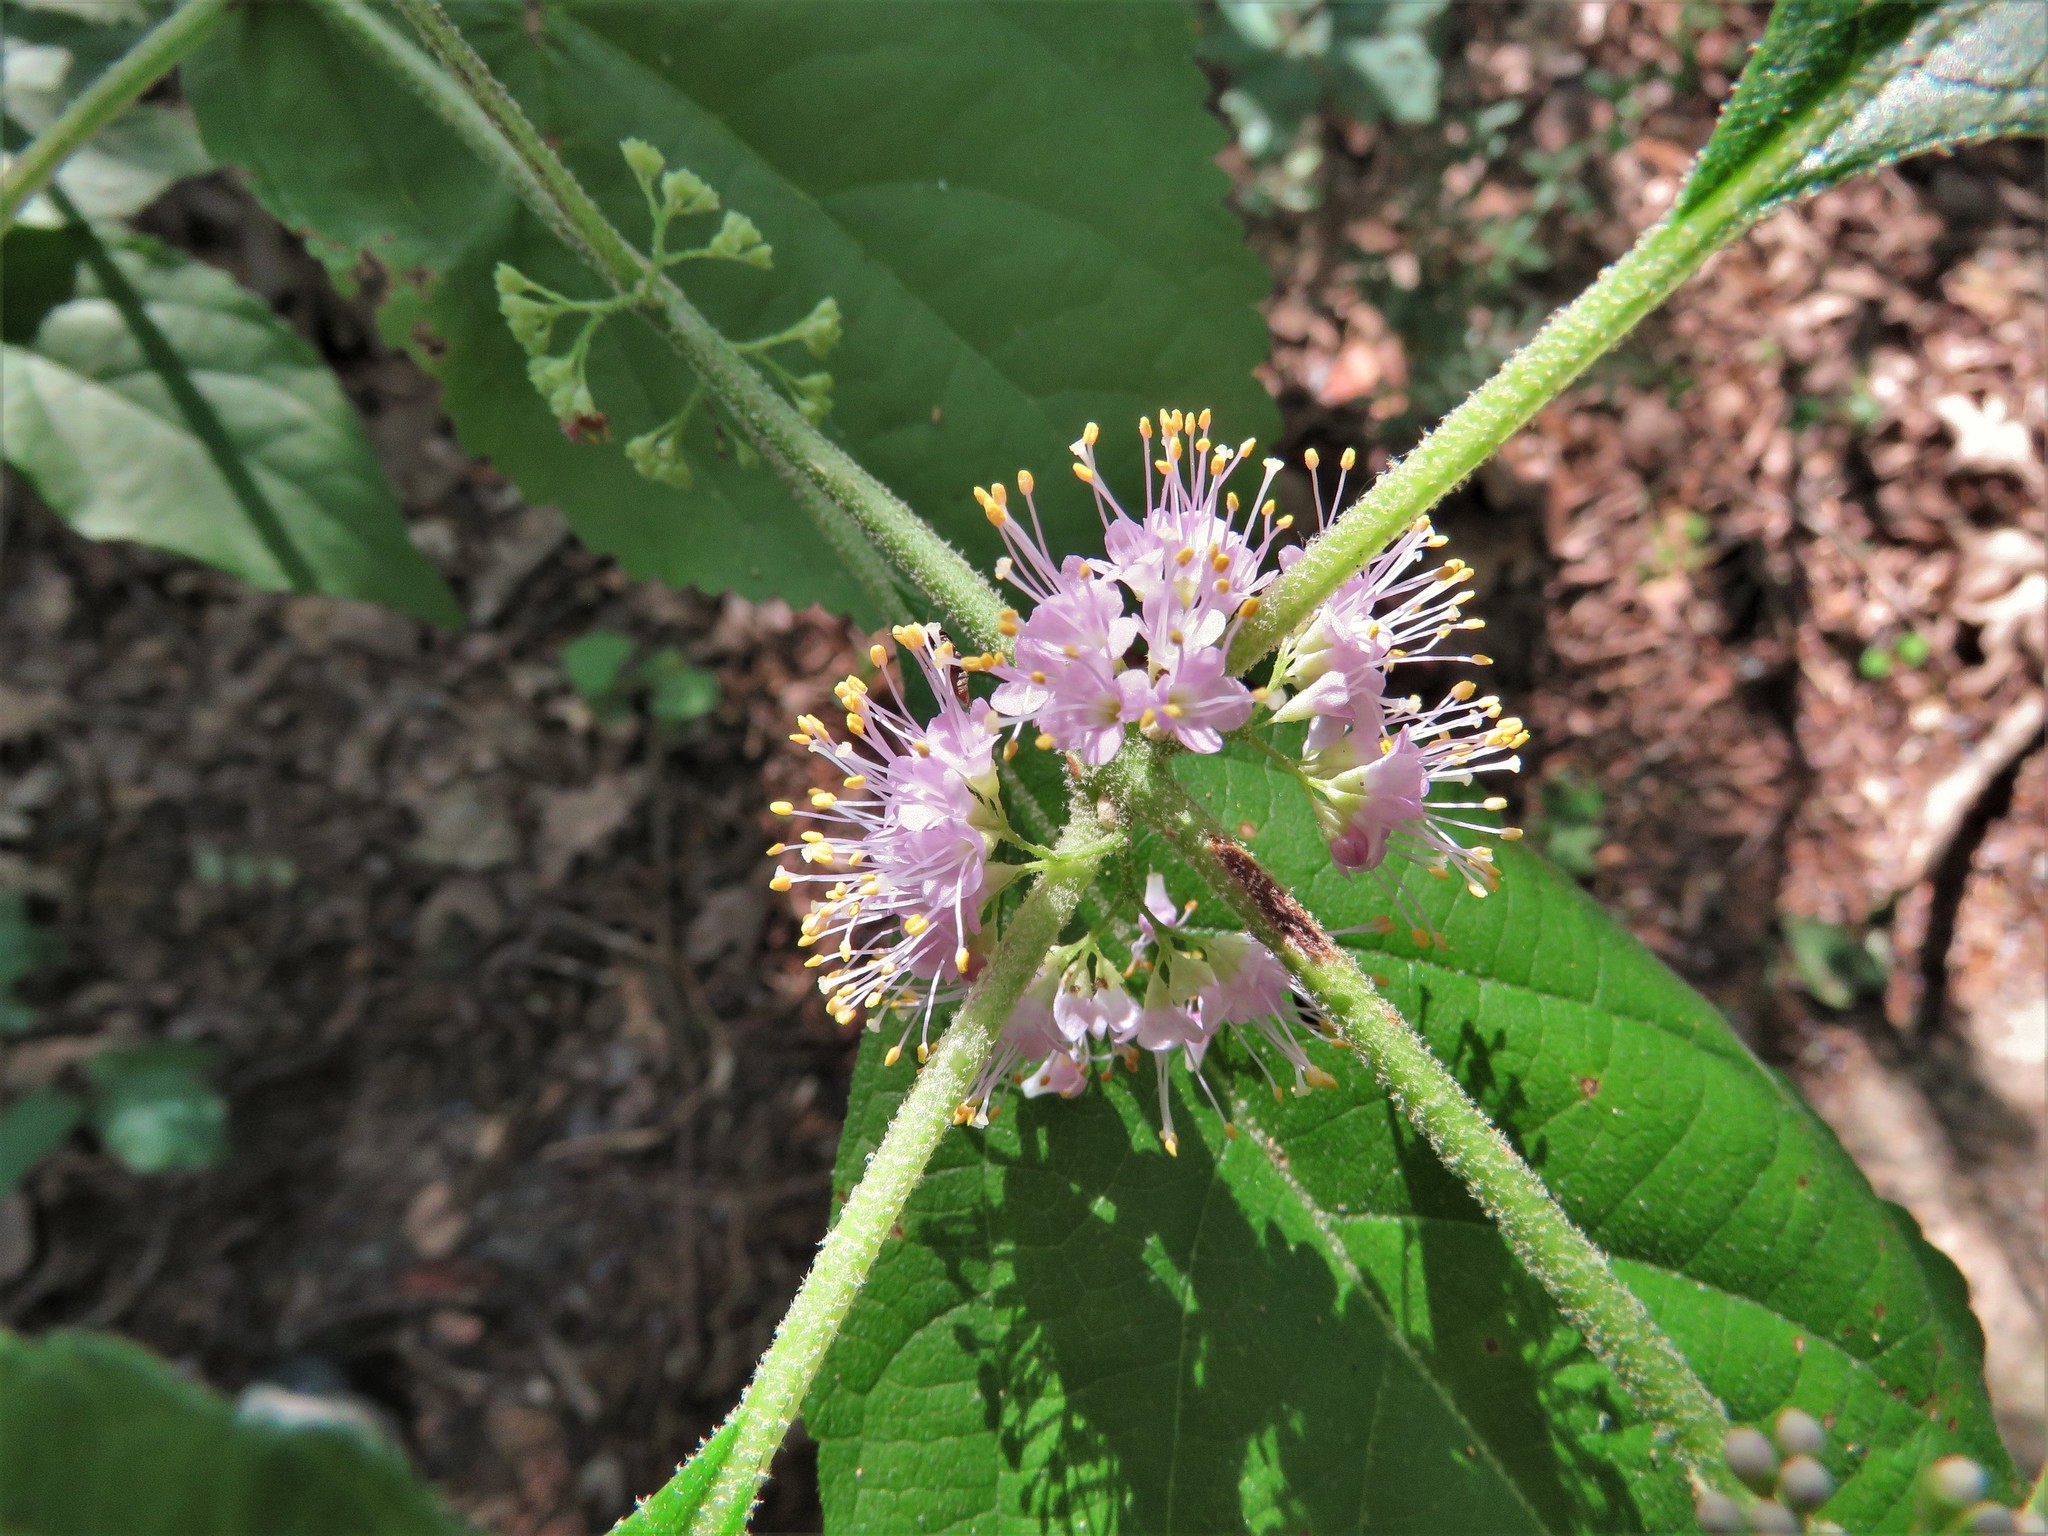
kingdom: Plantae
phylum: Tracheophyta
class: Magnoliopsida
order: Lamiales
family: Lamiaceae
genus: Callicarpa
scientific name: Callicarpa americana
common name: American beautyberry
